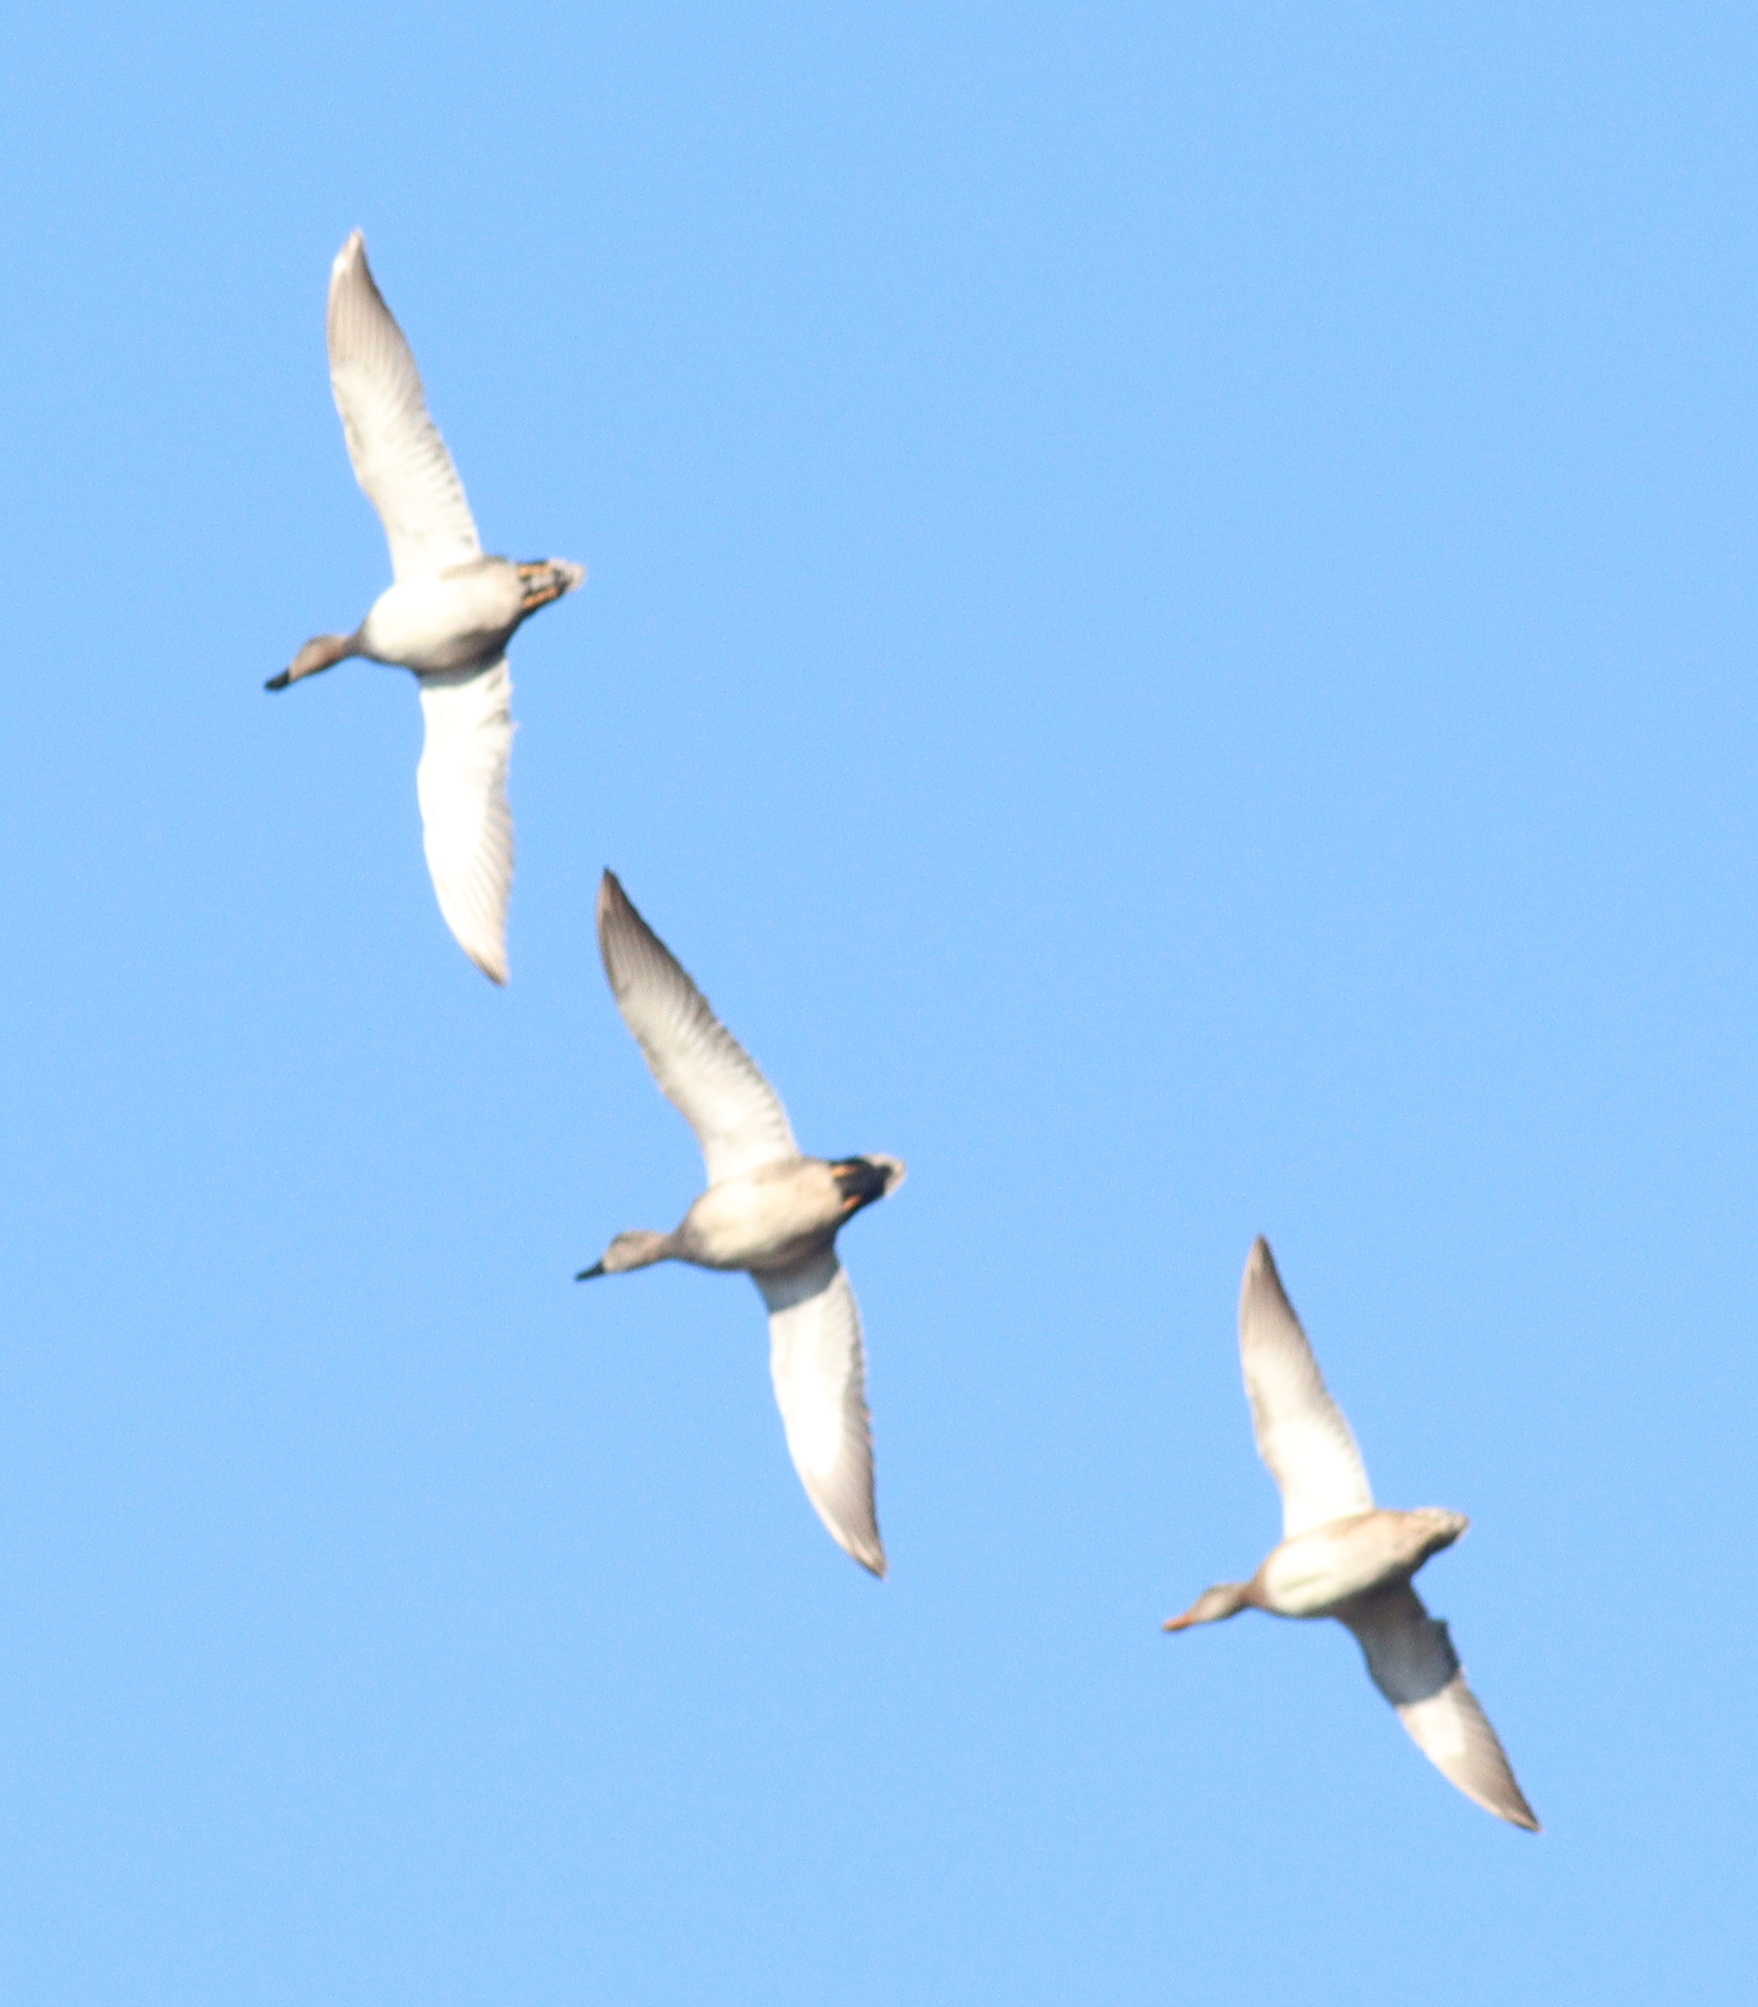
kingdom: Animalia
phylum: Chordata
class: Aves
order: Anseriformes
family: Anatidae
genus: Mareca
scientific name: Mareca strepera
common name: Gadwall
